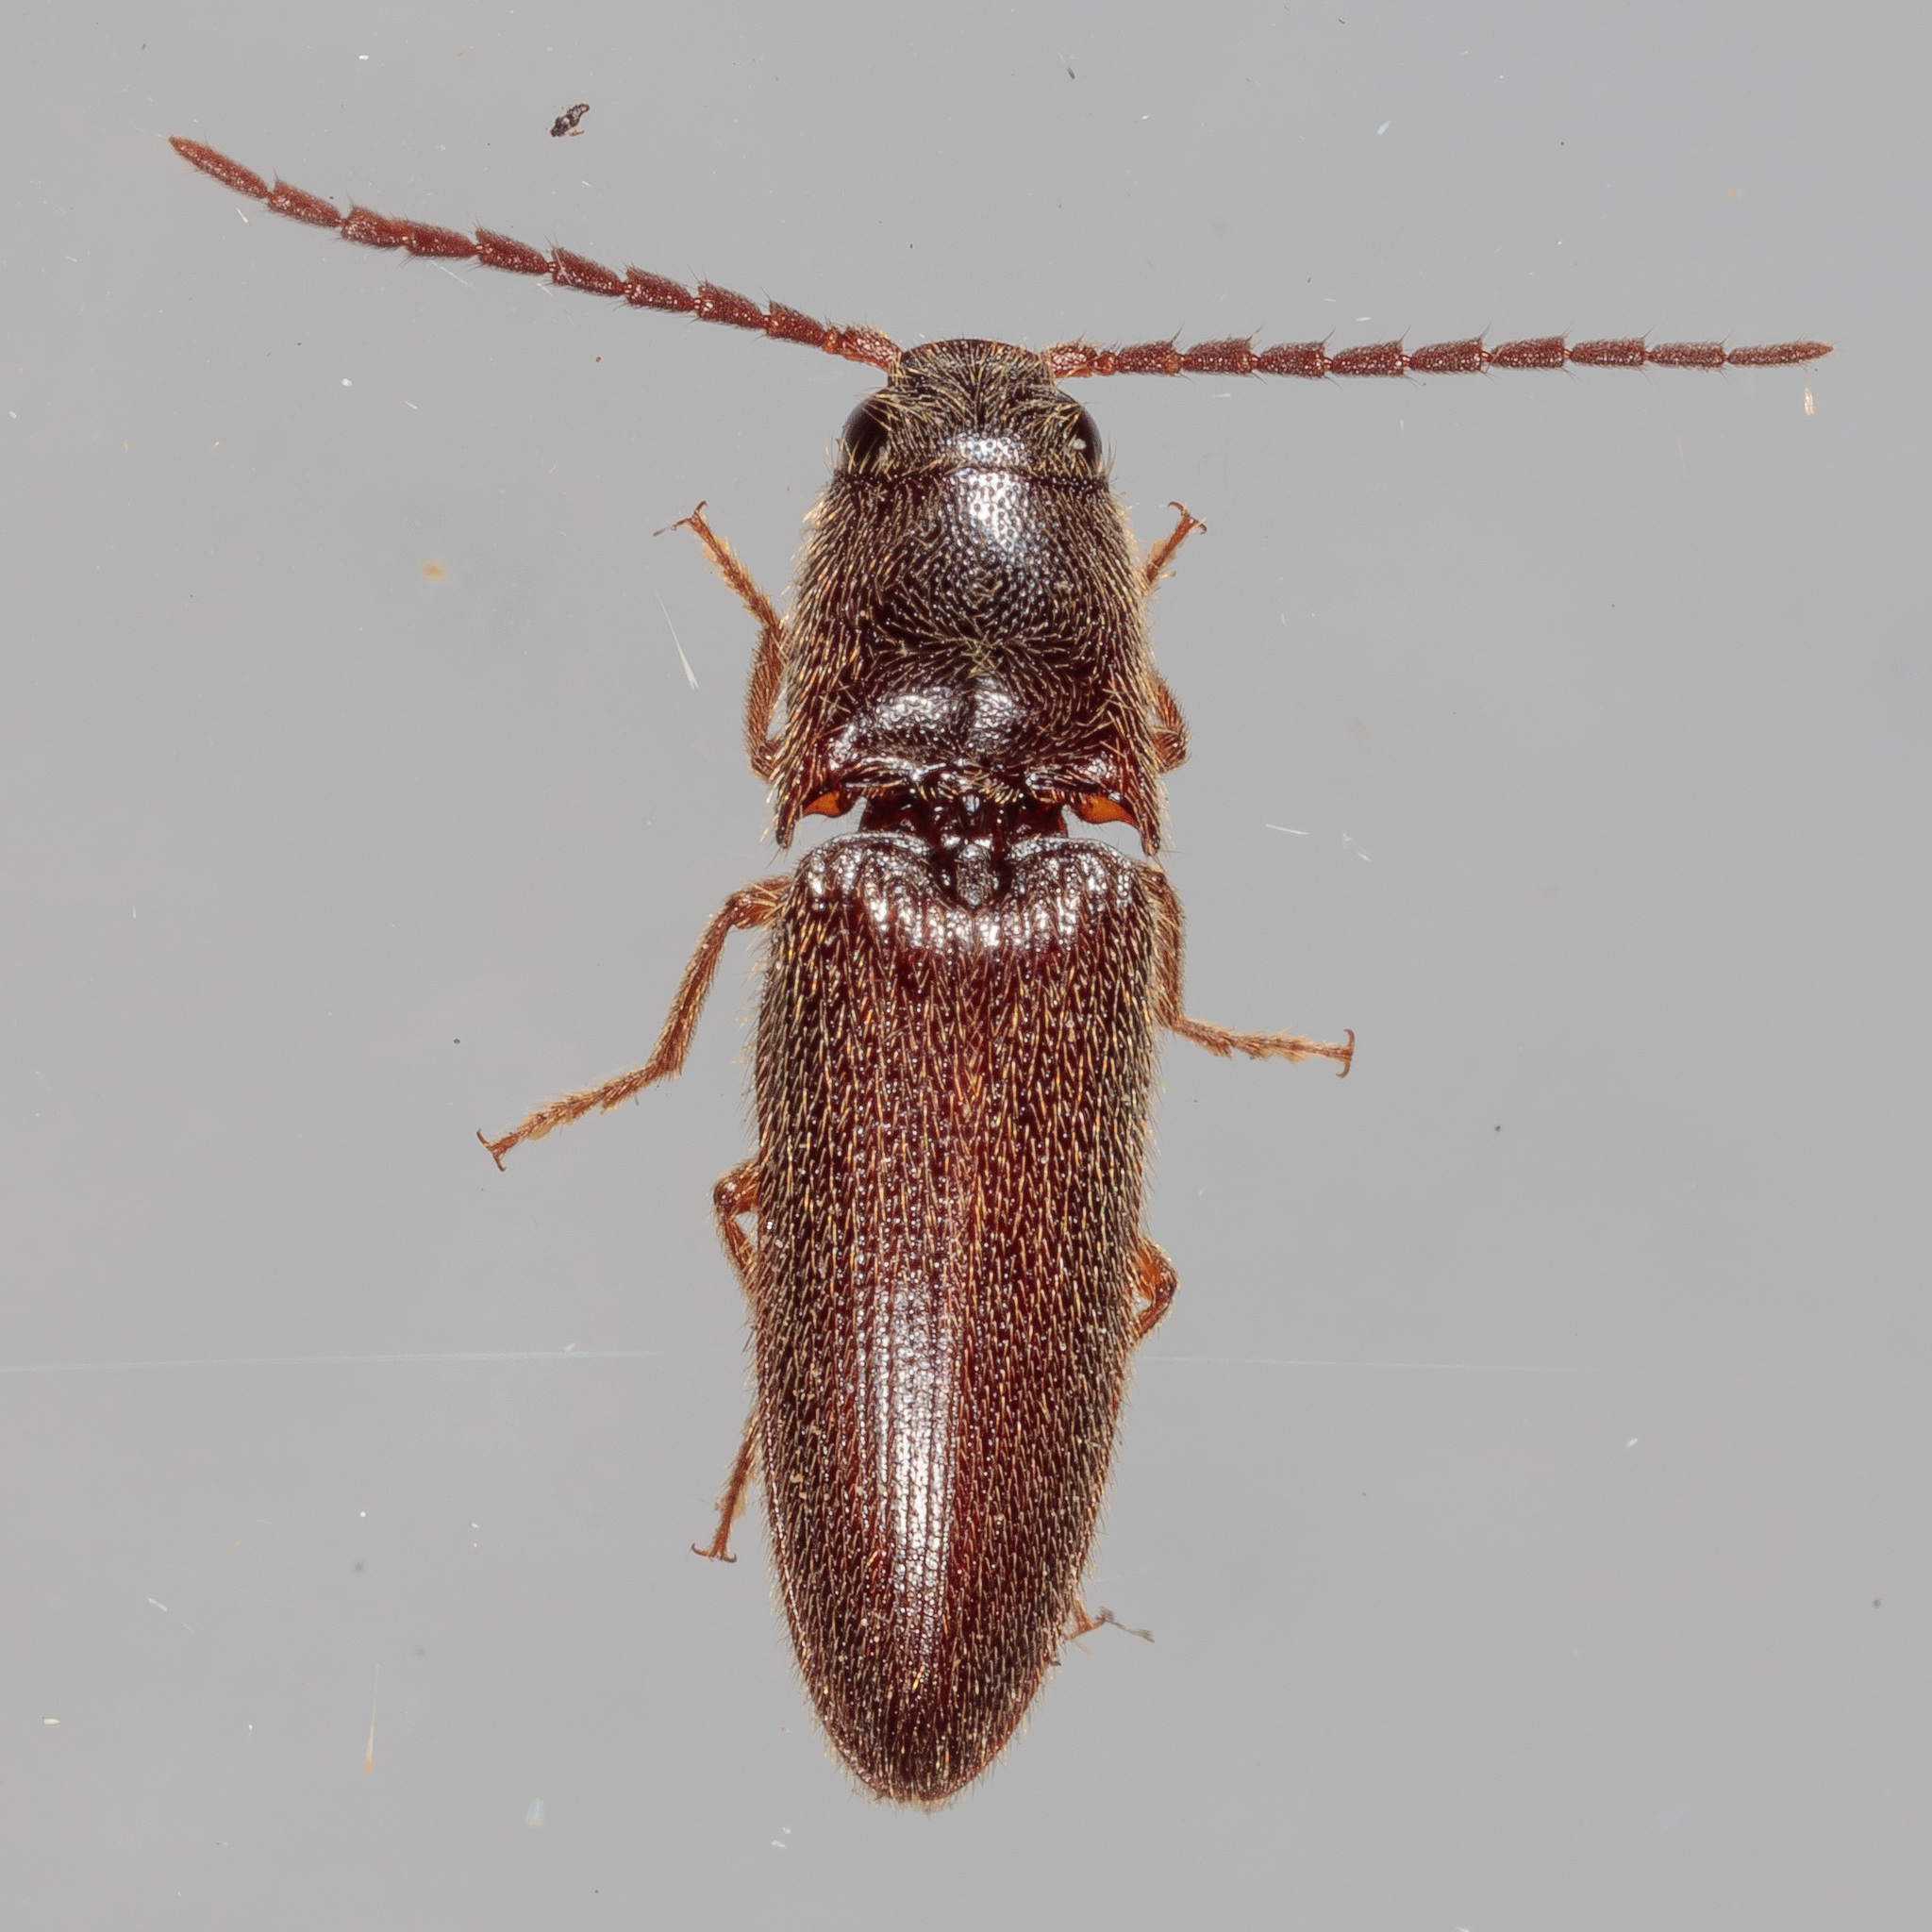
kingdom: Animalia
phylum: Arthropoda
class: Insecta
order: Coleoptera
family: Elateridae
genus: Dipropus
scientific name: Dipropus
